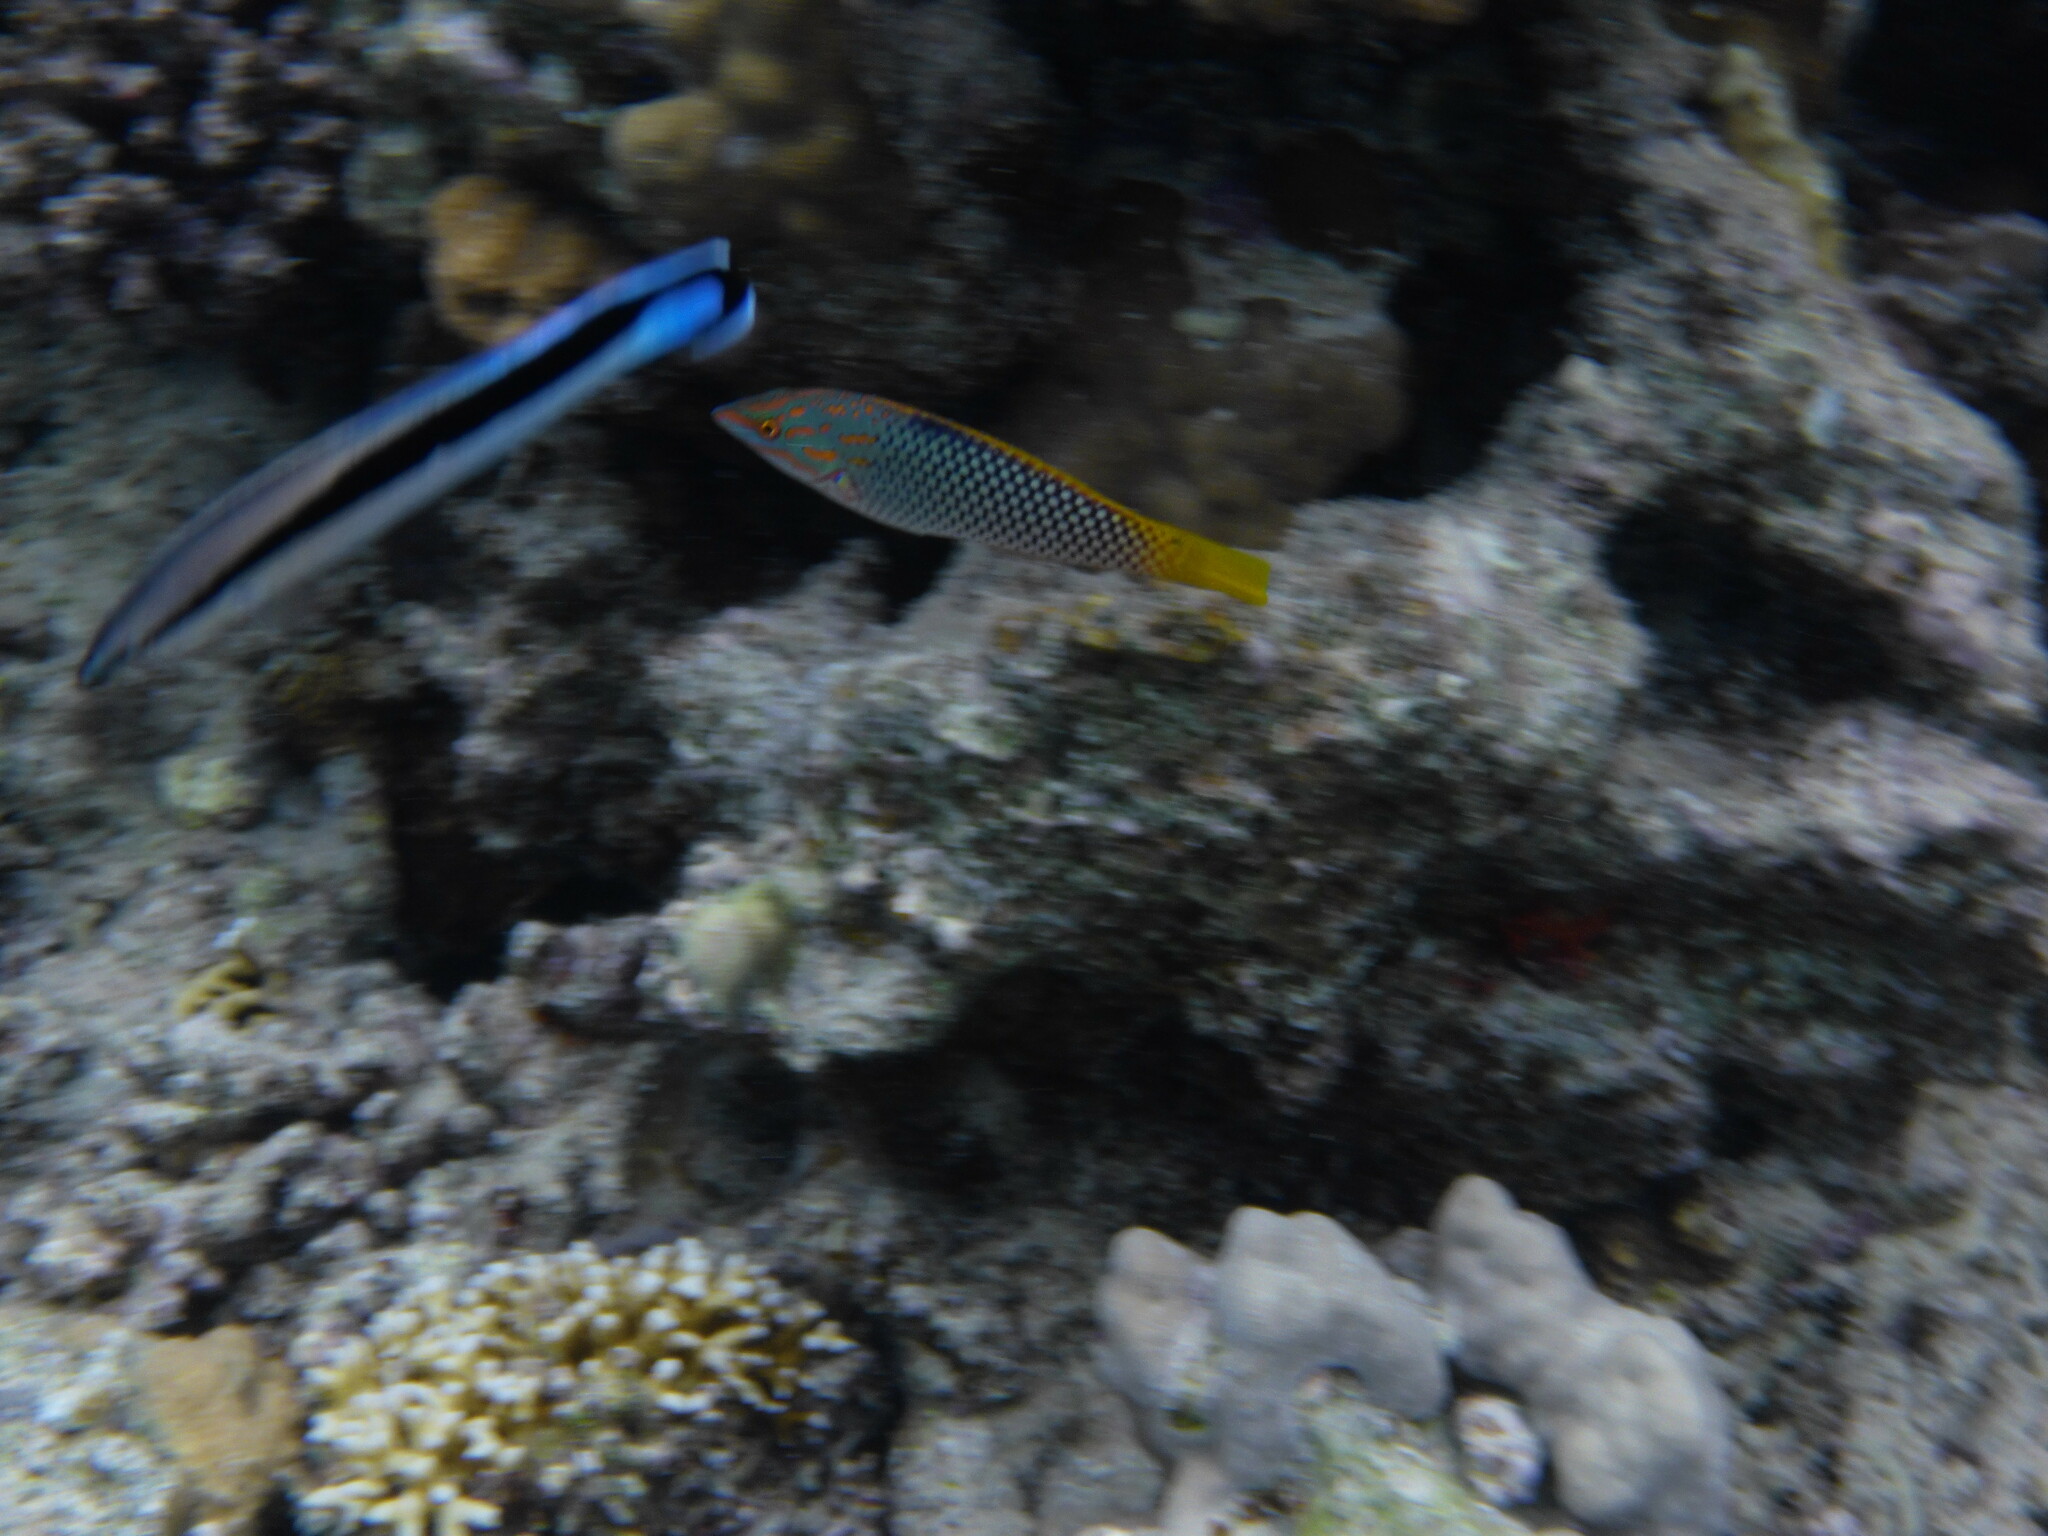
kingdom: Animalia
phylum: Chordata
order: Perciformes
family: Labridae
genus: Halichoeres
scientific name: Halichoeres hortulanus
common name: Checkerboard wrasse
